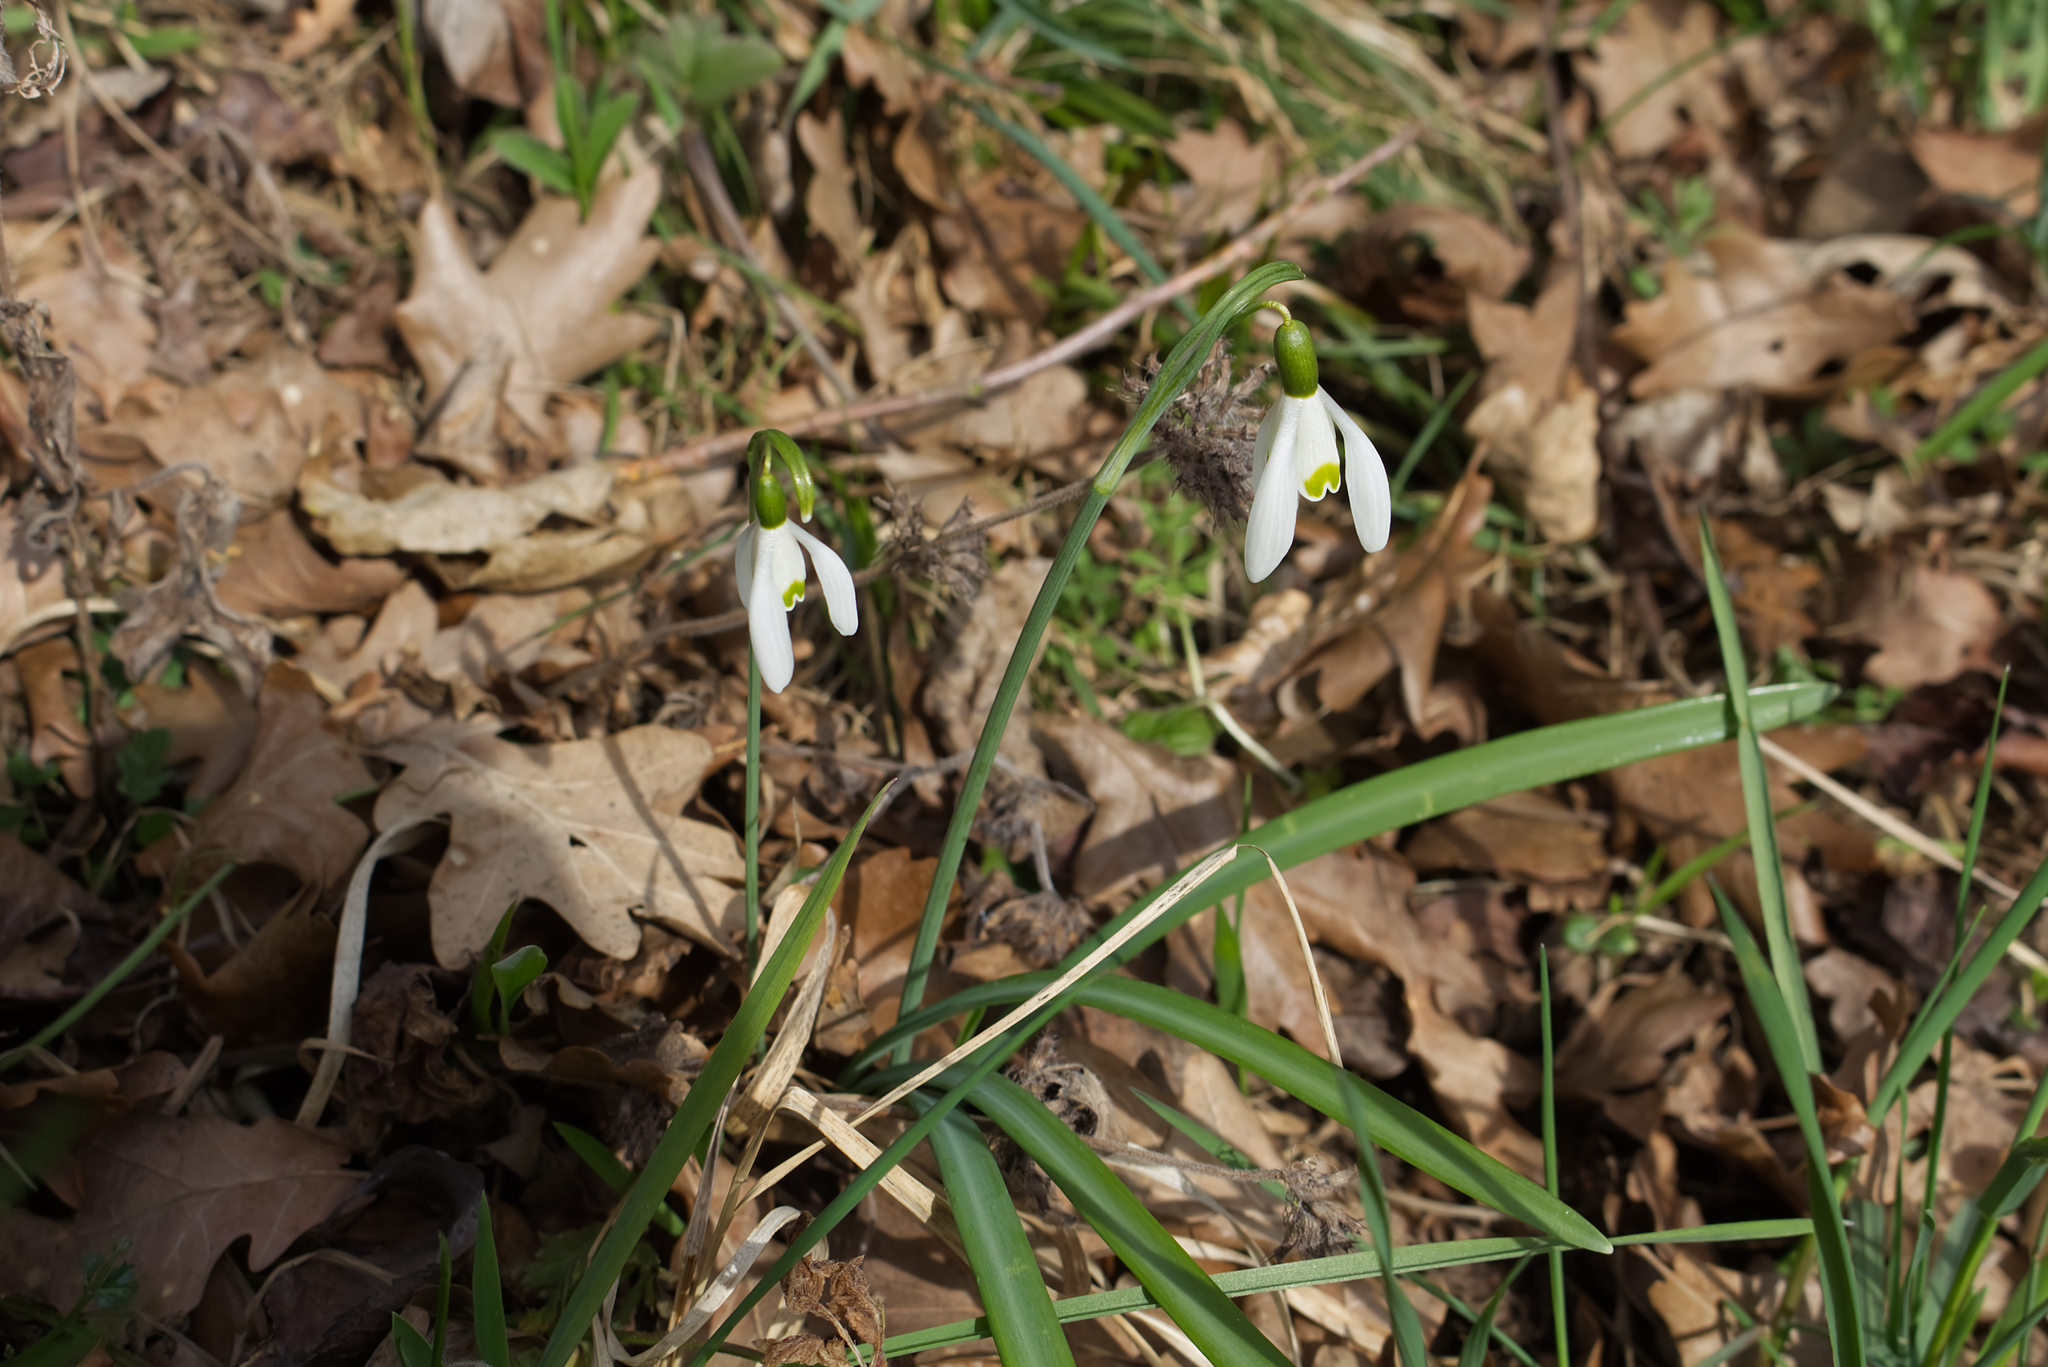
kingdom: Plantae
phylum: Tracheophyta
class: Liliopsida
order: Asparagales
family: Amaryllidaceae
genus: Galanthus
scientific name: Galanthus nivalis
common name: Snowdrop
